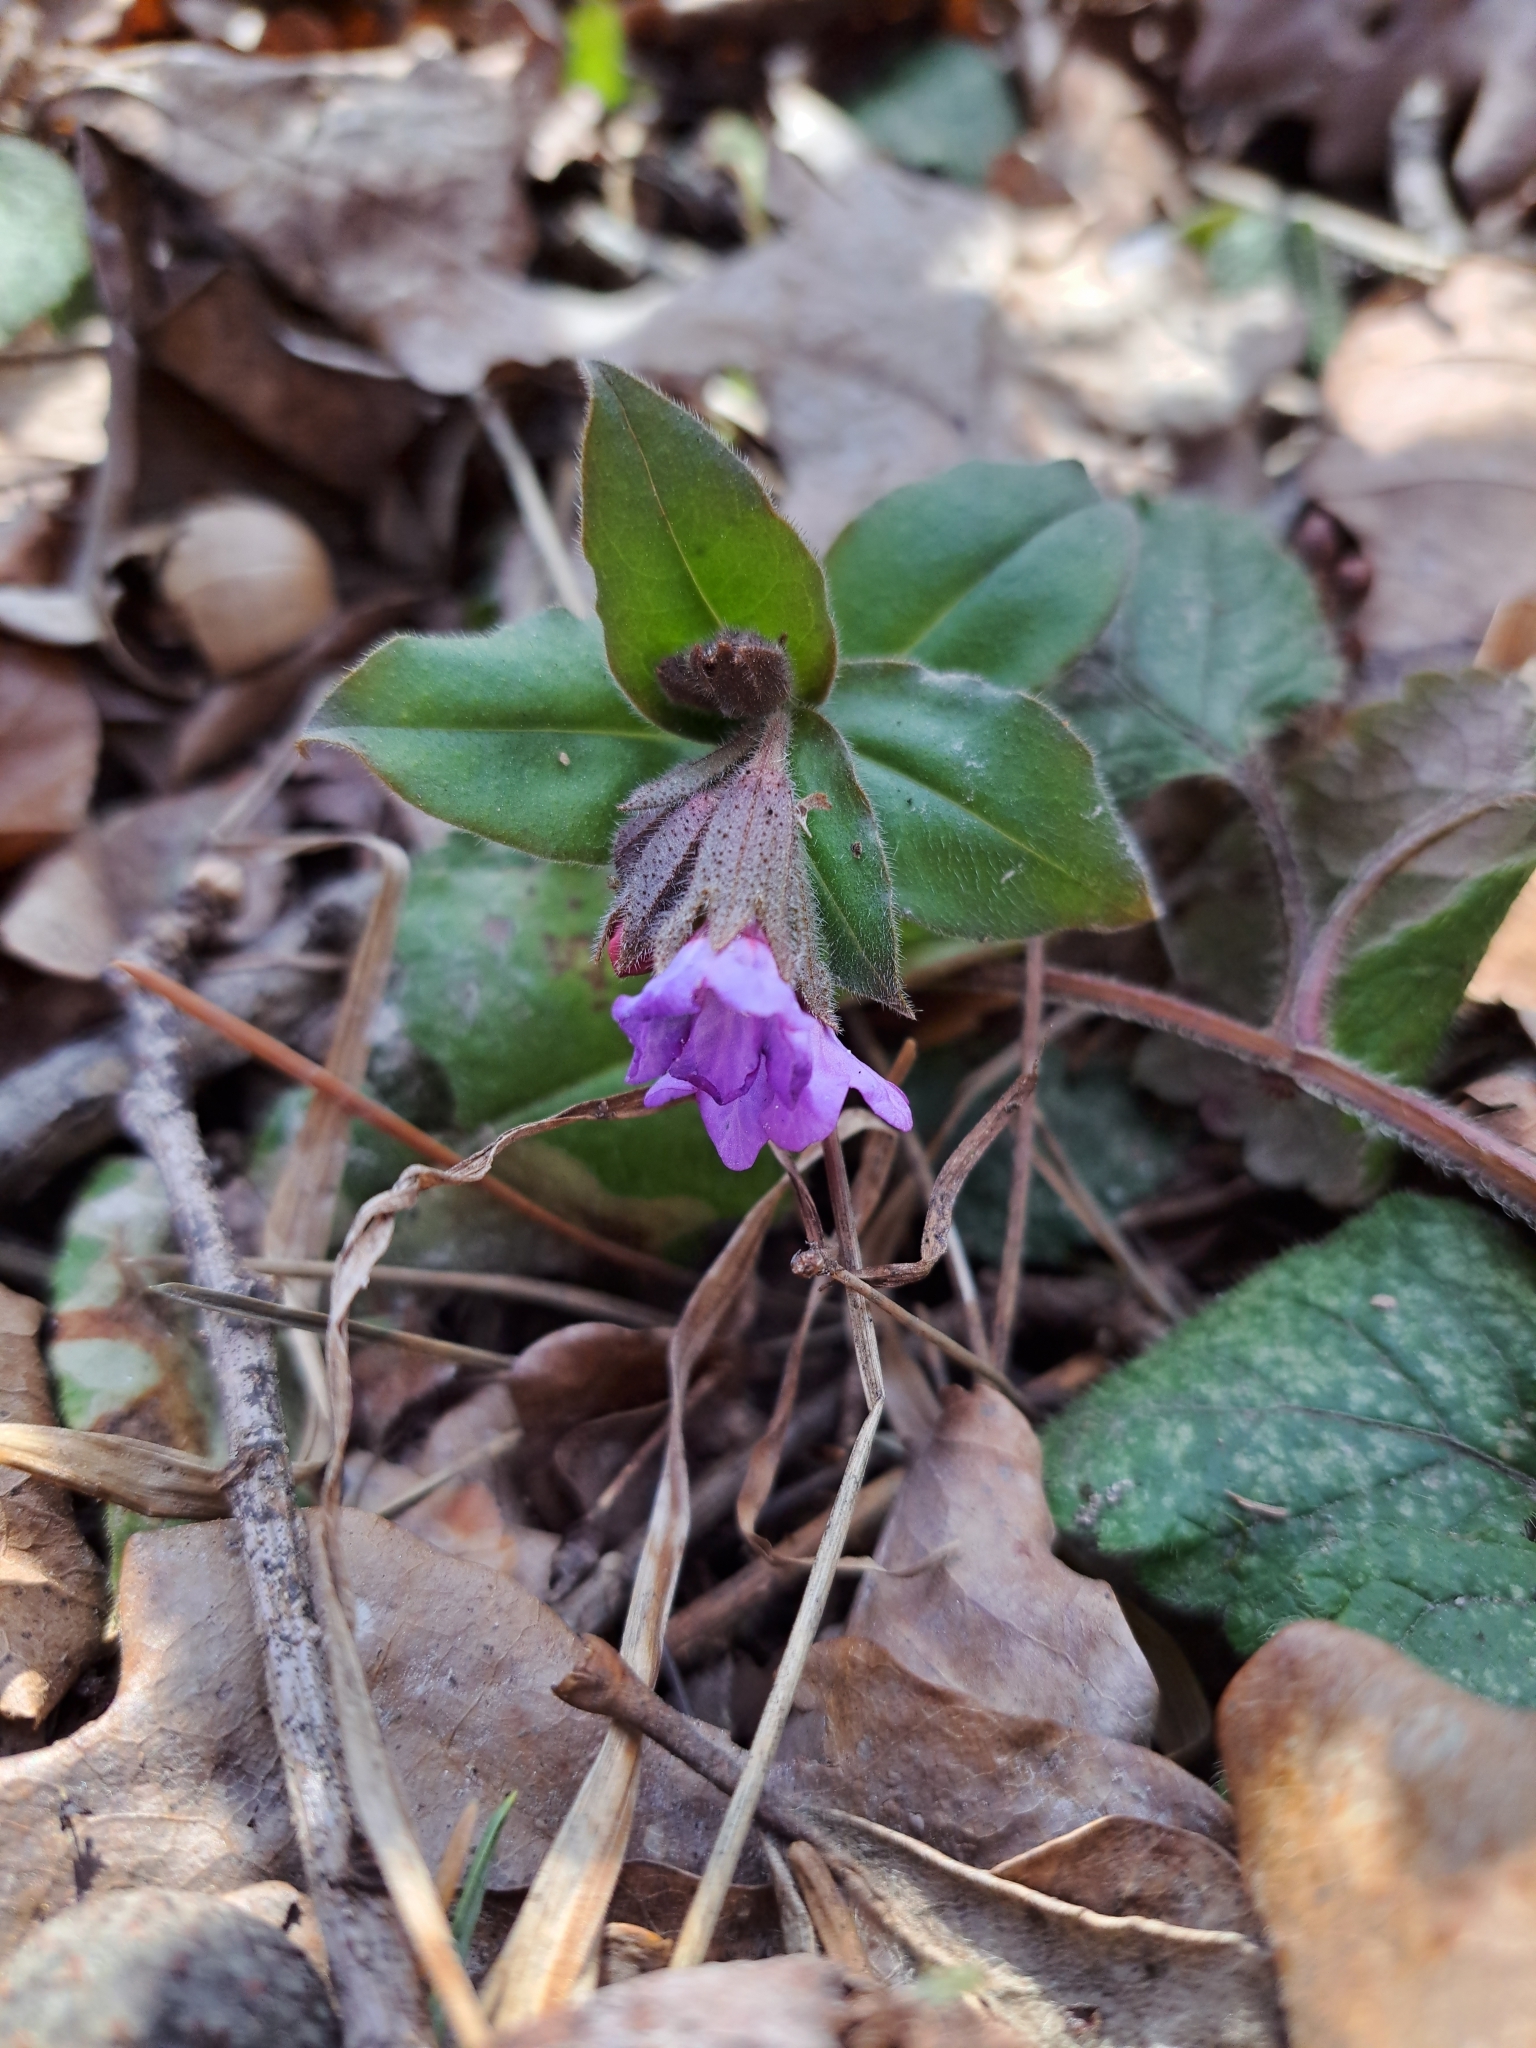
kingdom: Plantae
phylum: Tracheophyta
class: Magnoliopsida
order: Boraginales
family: Boraginaceae
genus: Pulmonaria
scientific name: Pulmonaria obscura
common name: Suffolk lungwort
